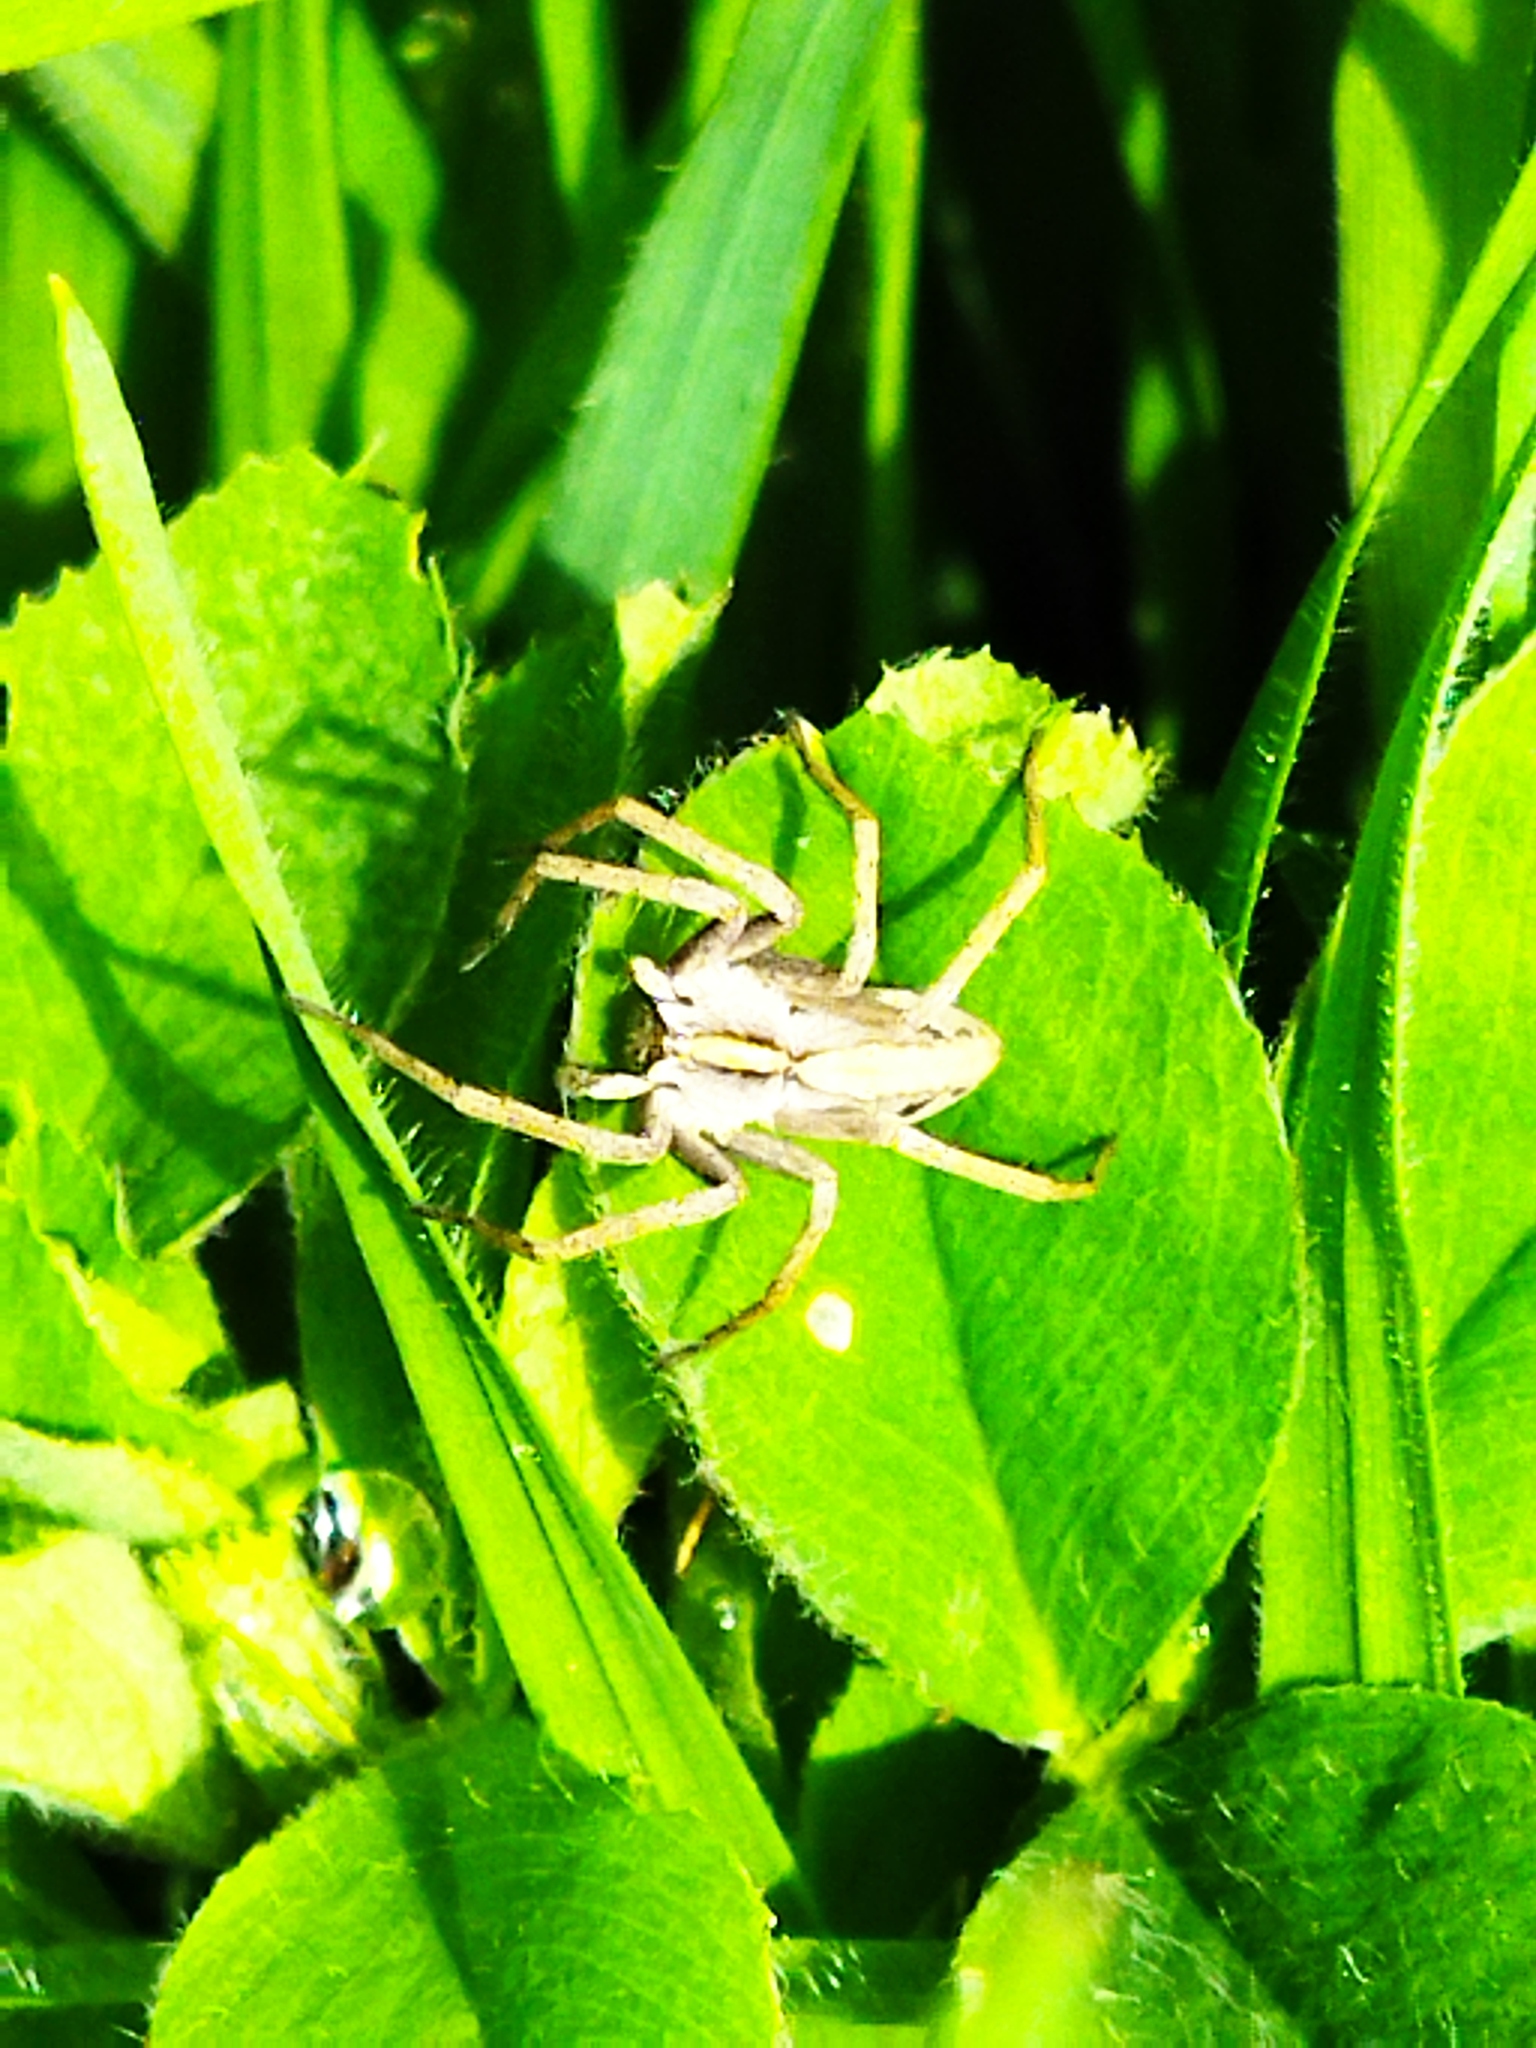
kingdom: Animalia
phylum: Arthropoda
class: Arachnida
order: Araneae
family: Pisauridae
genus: Pisaura
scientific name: Pisaura mirabilis
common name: Tent spider
